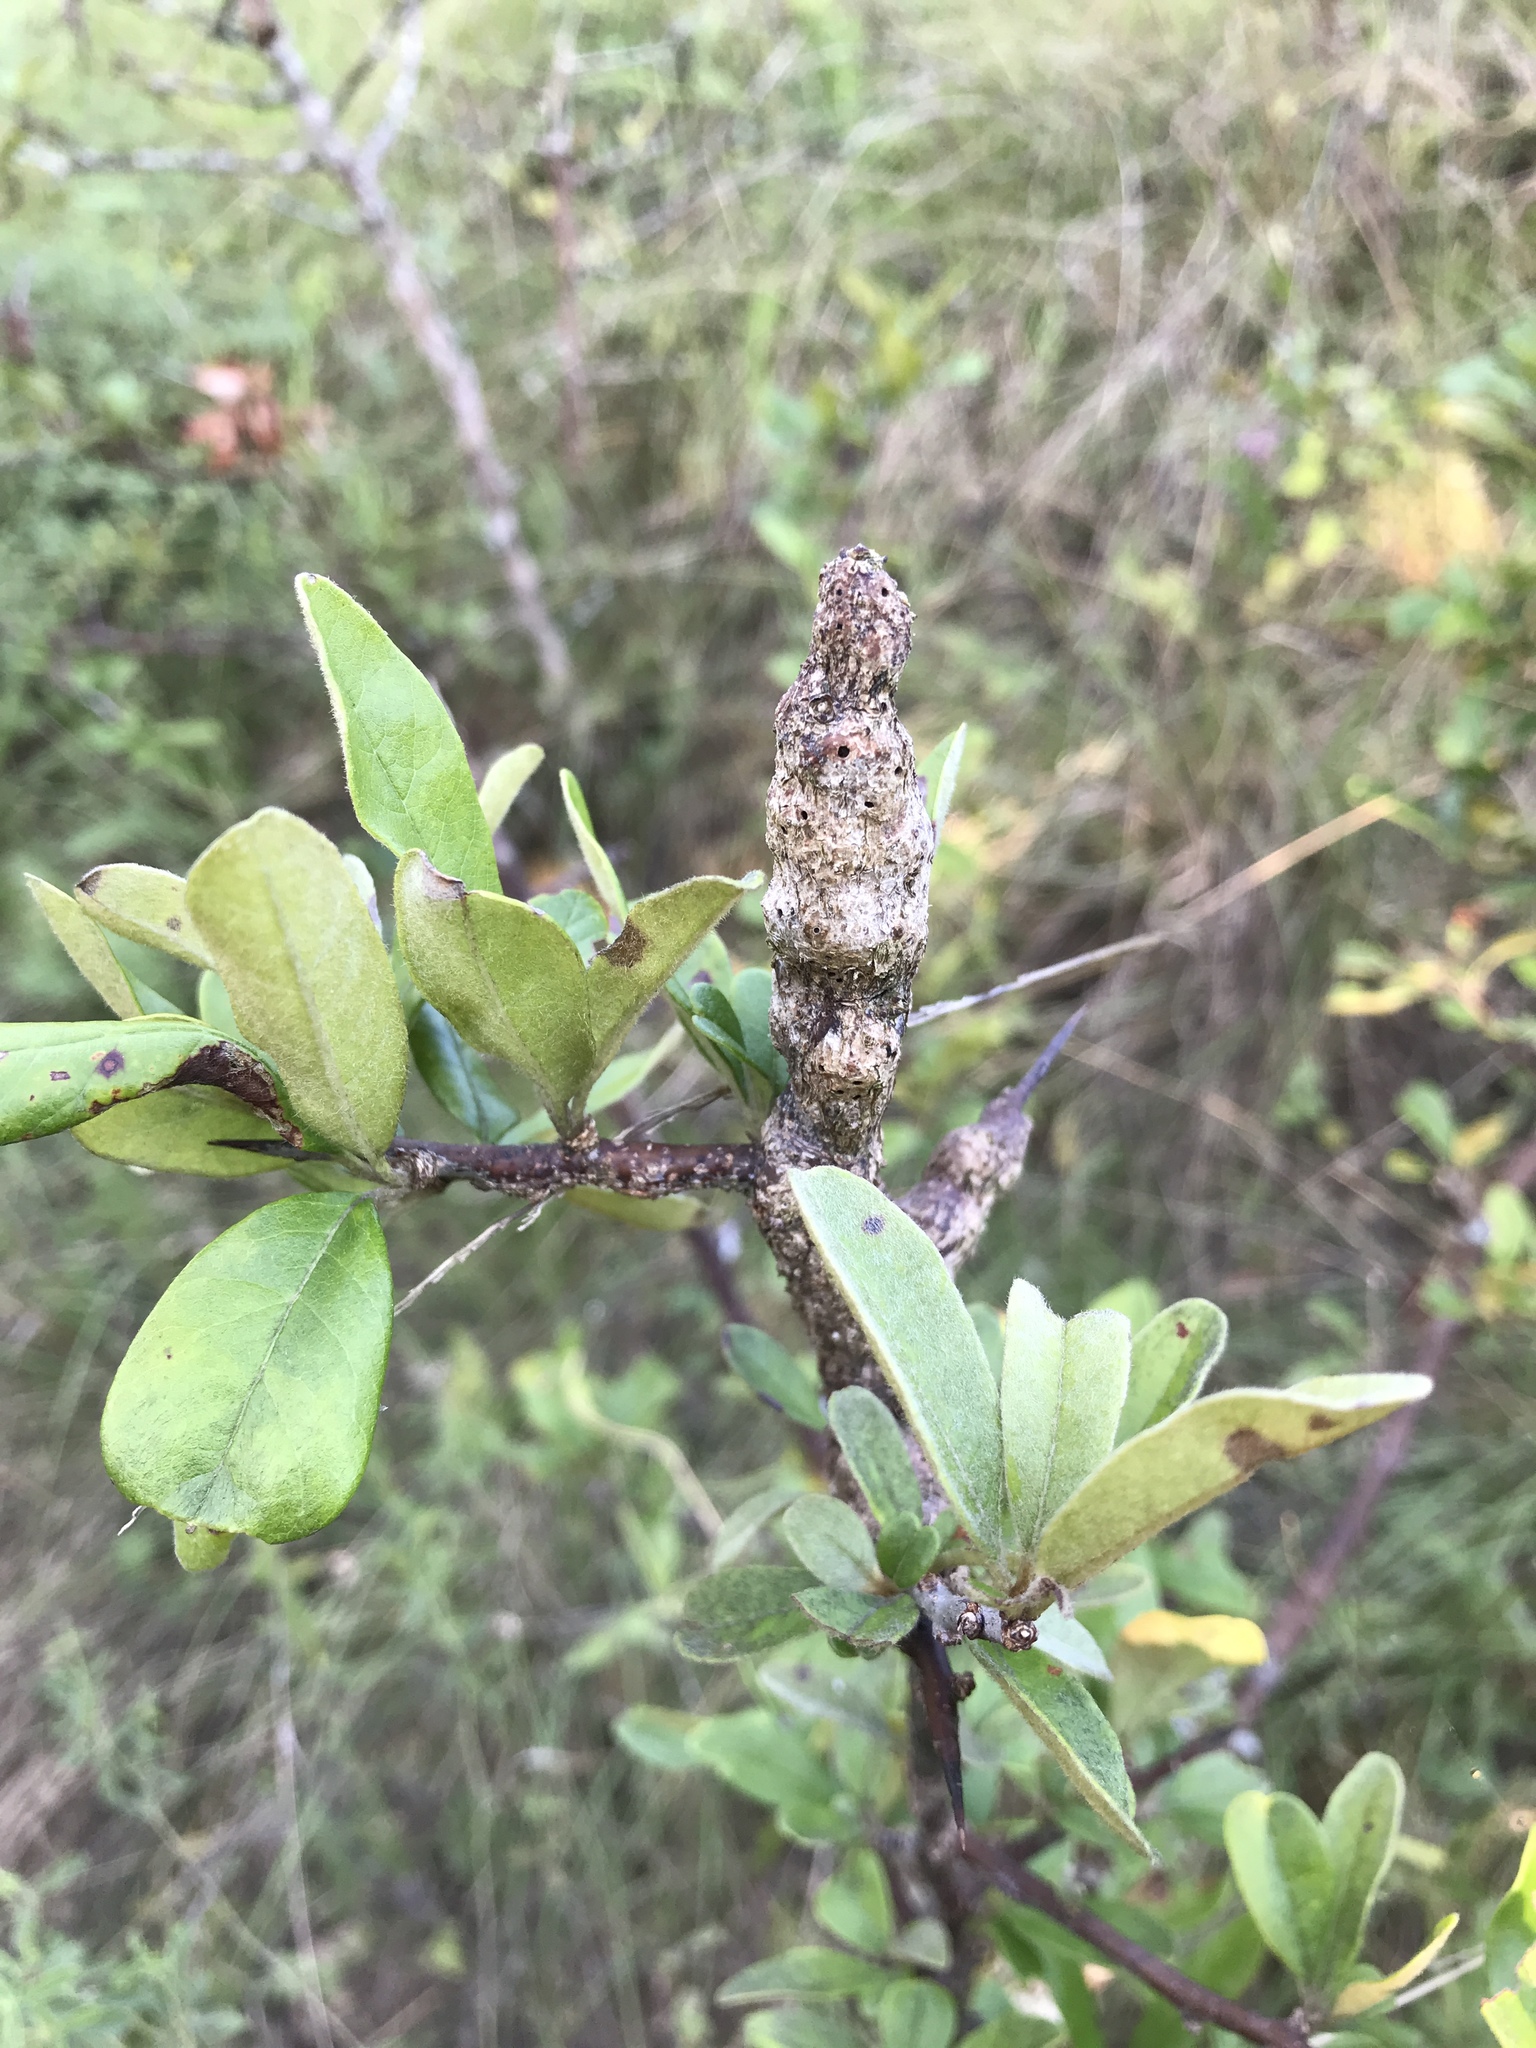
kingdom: Animalia
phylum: Arthropoda
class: Insecta
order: Diptera
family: Cecidomyiidae
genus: Bruggmanniella
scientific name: Bruggmanniella bumeliae
